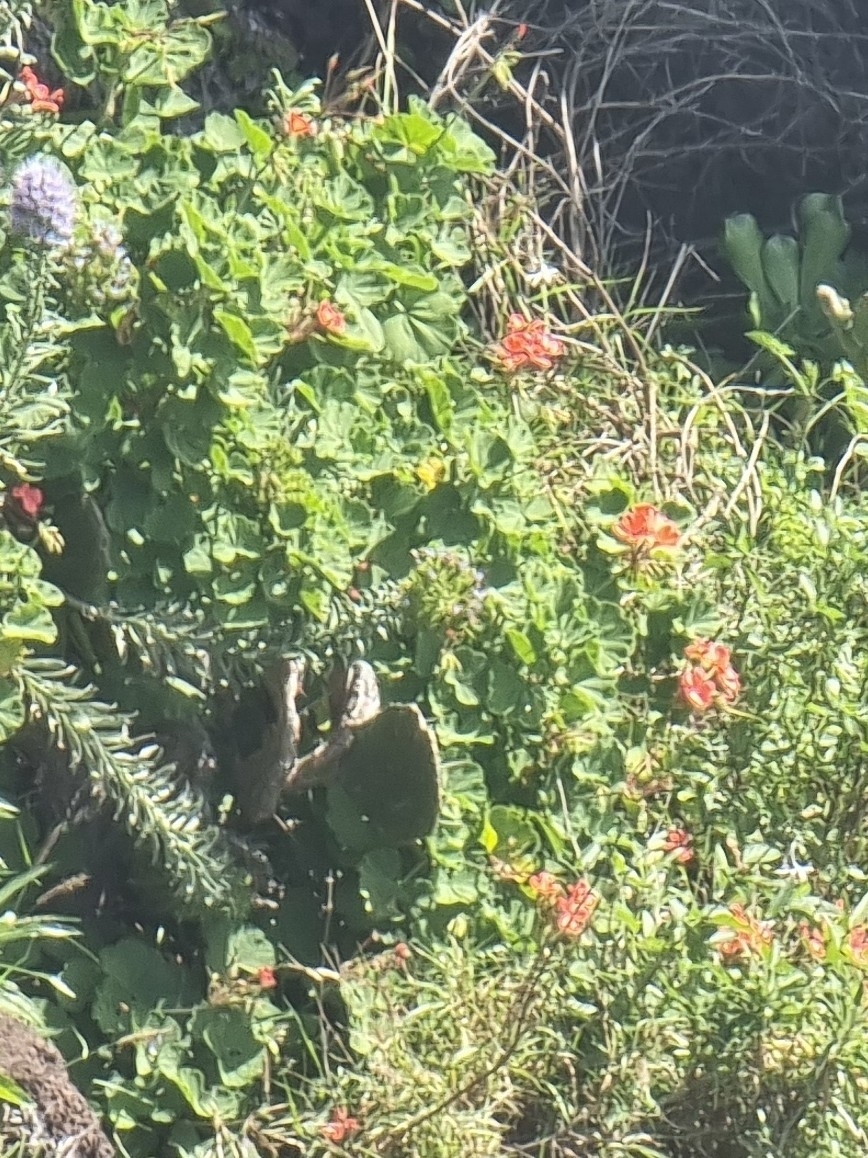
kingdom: Plantae
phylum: Tracheophyta
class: Magnoliopsida
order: Geraniales
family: Geraniaceae
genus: Pelargonium
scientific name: Pelargonium hybridum
